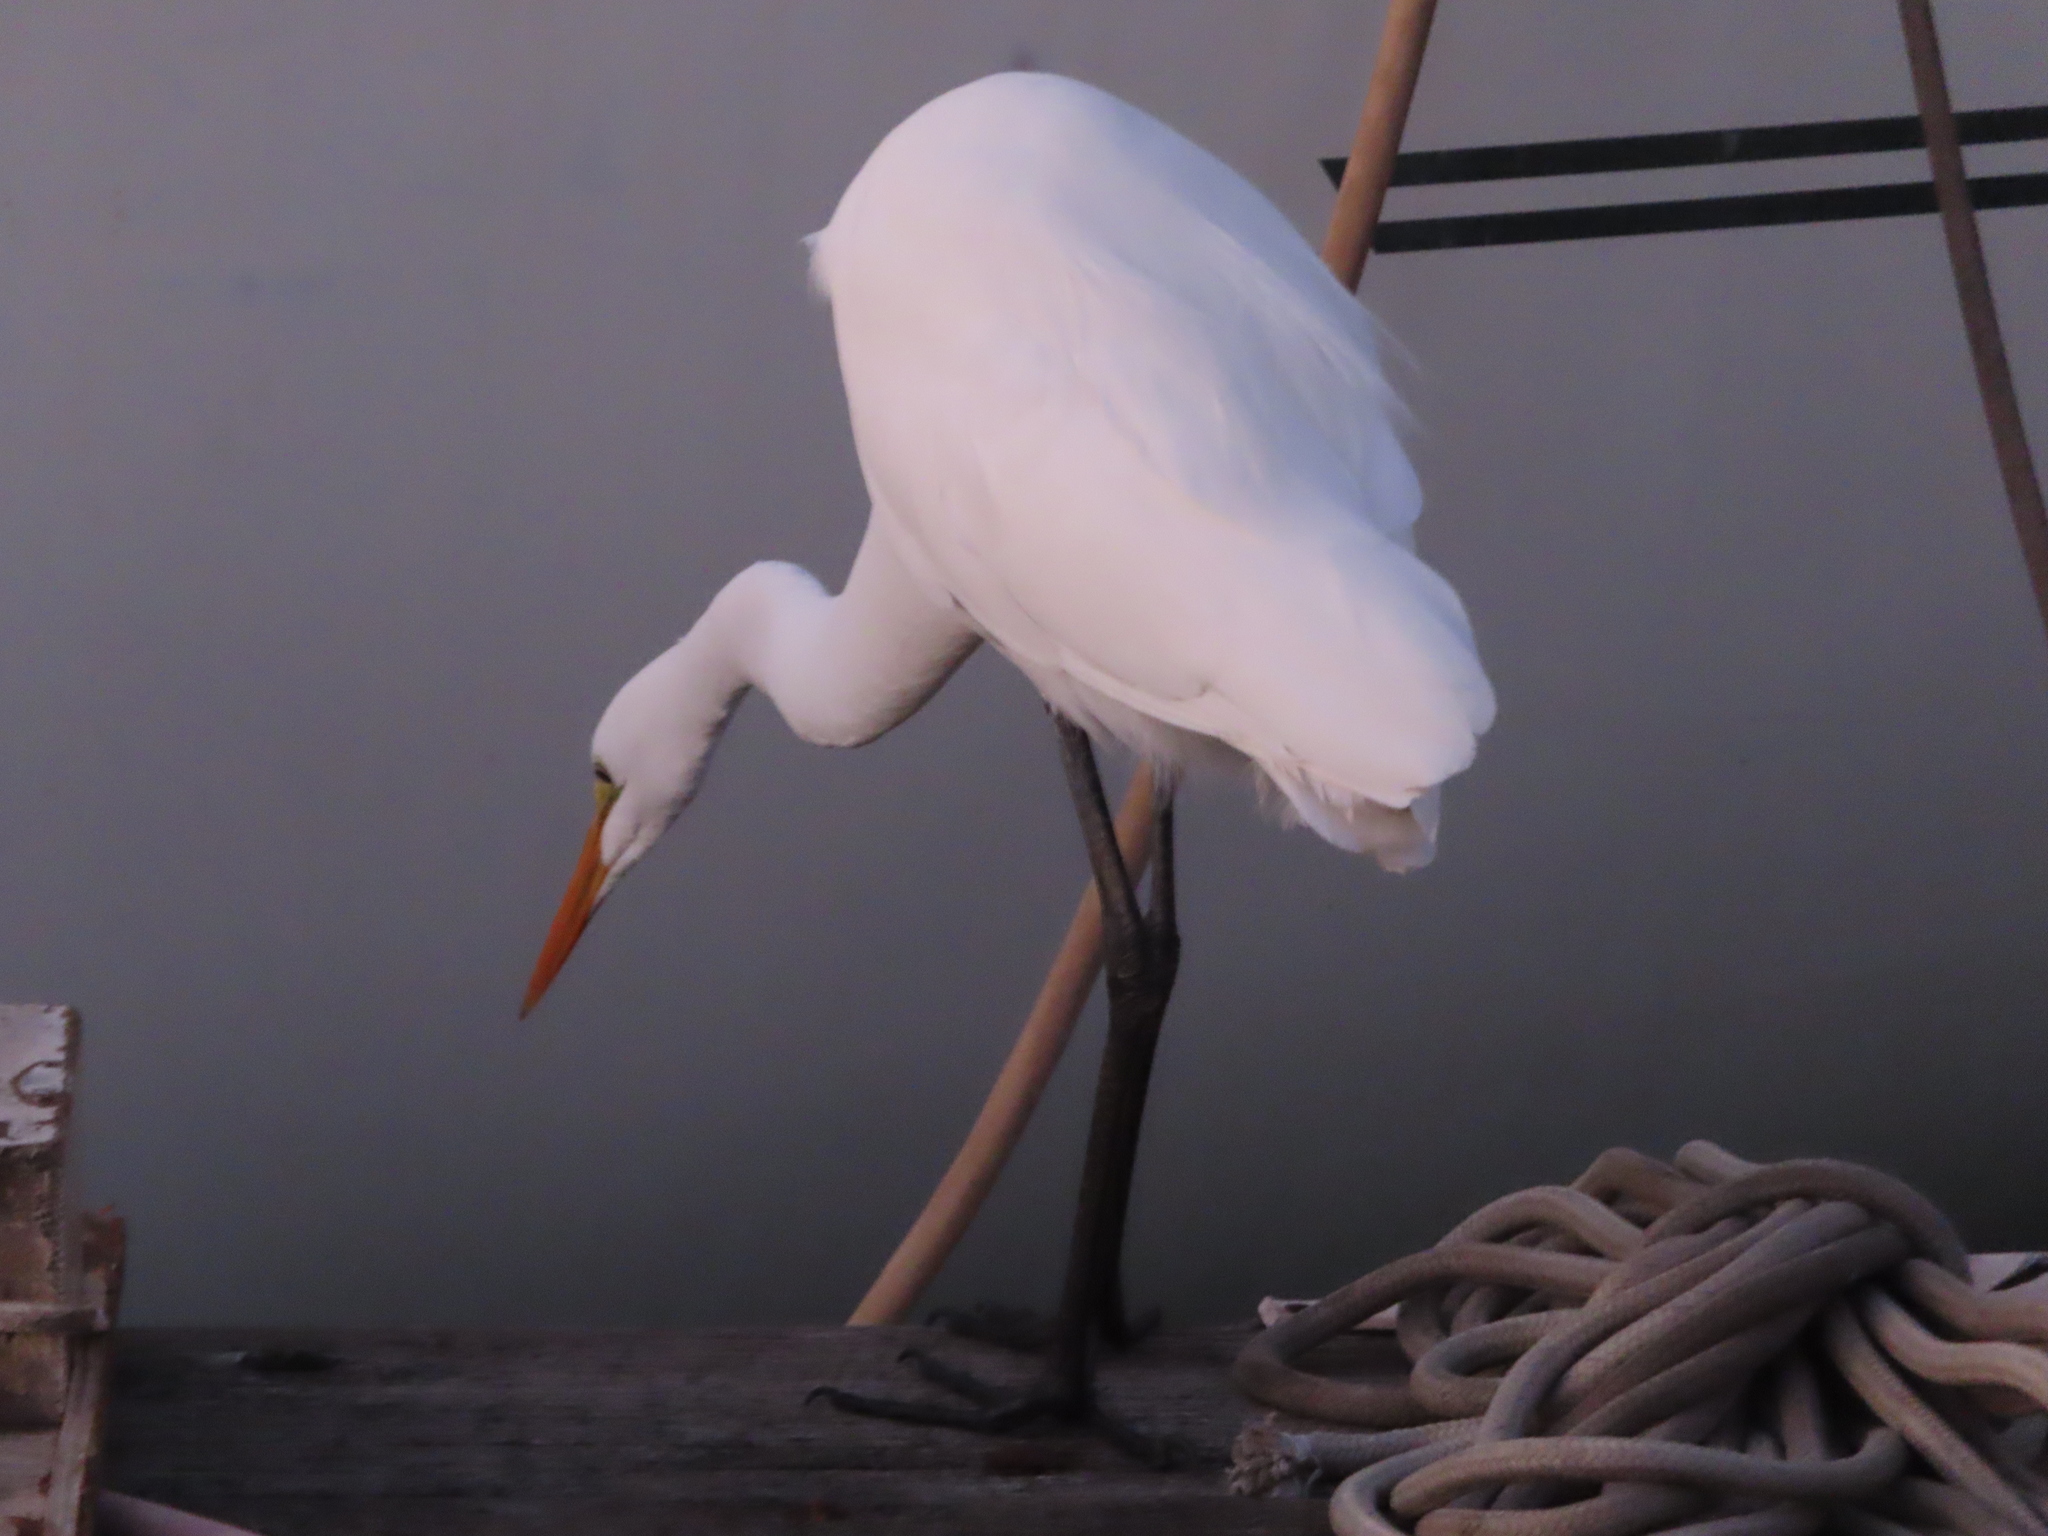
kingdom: Animalia
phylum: Chordata
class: Aves
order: Pelecaniformes
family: Ardeidae
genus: Ardea
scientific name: Ardea alba
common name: Great egret
